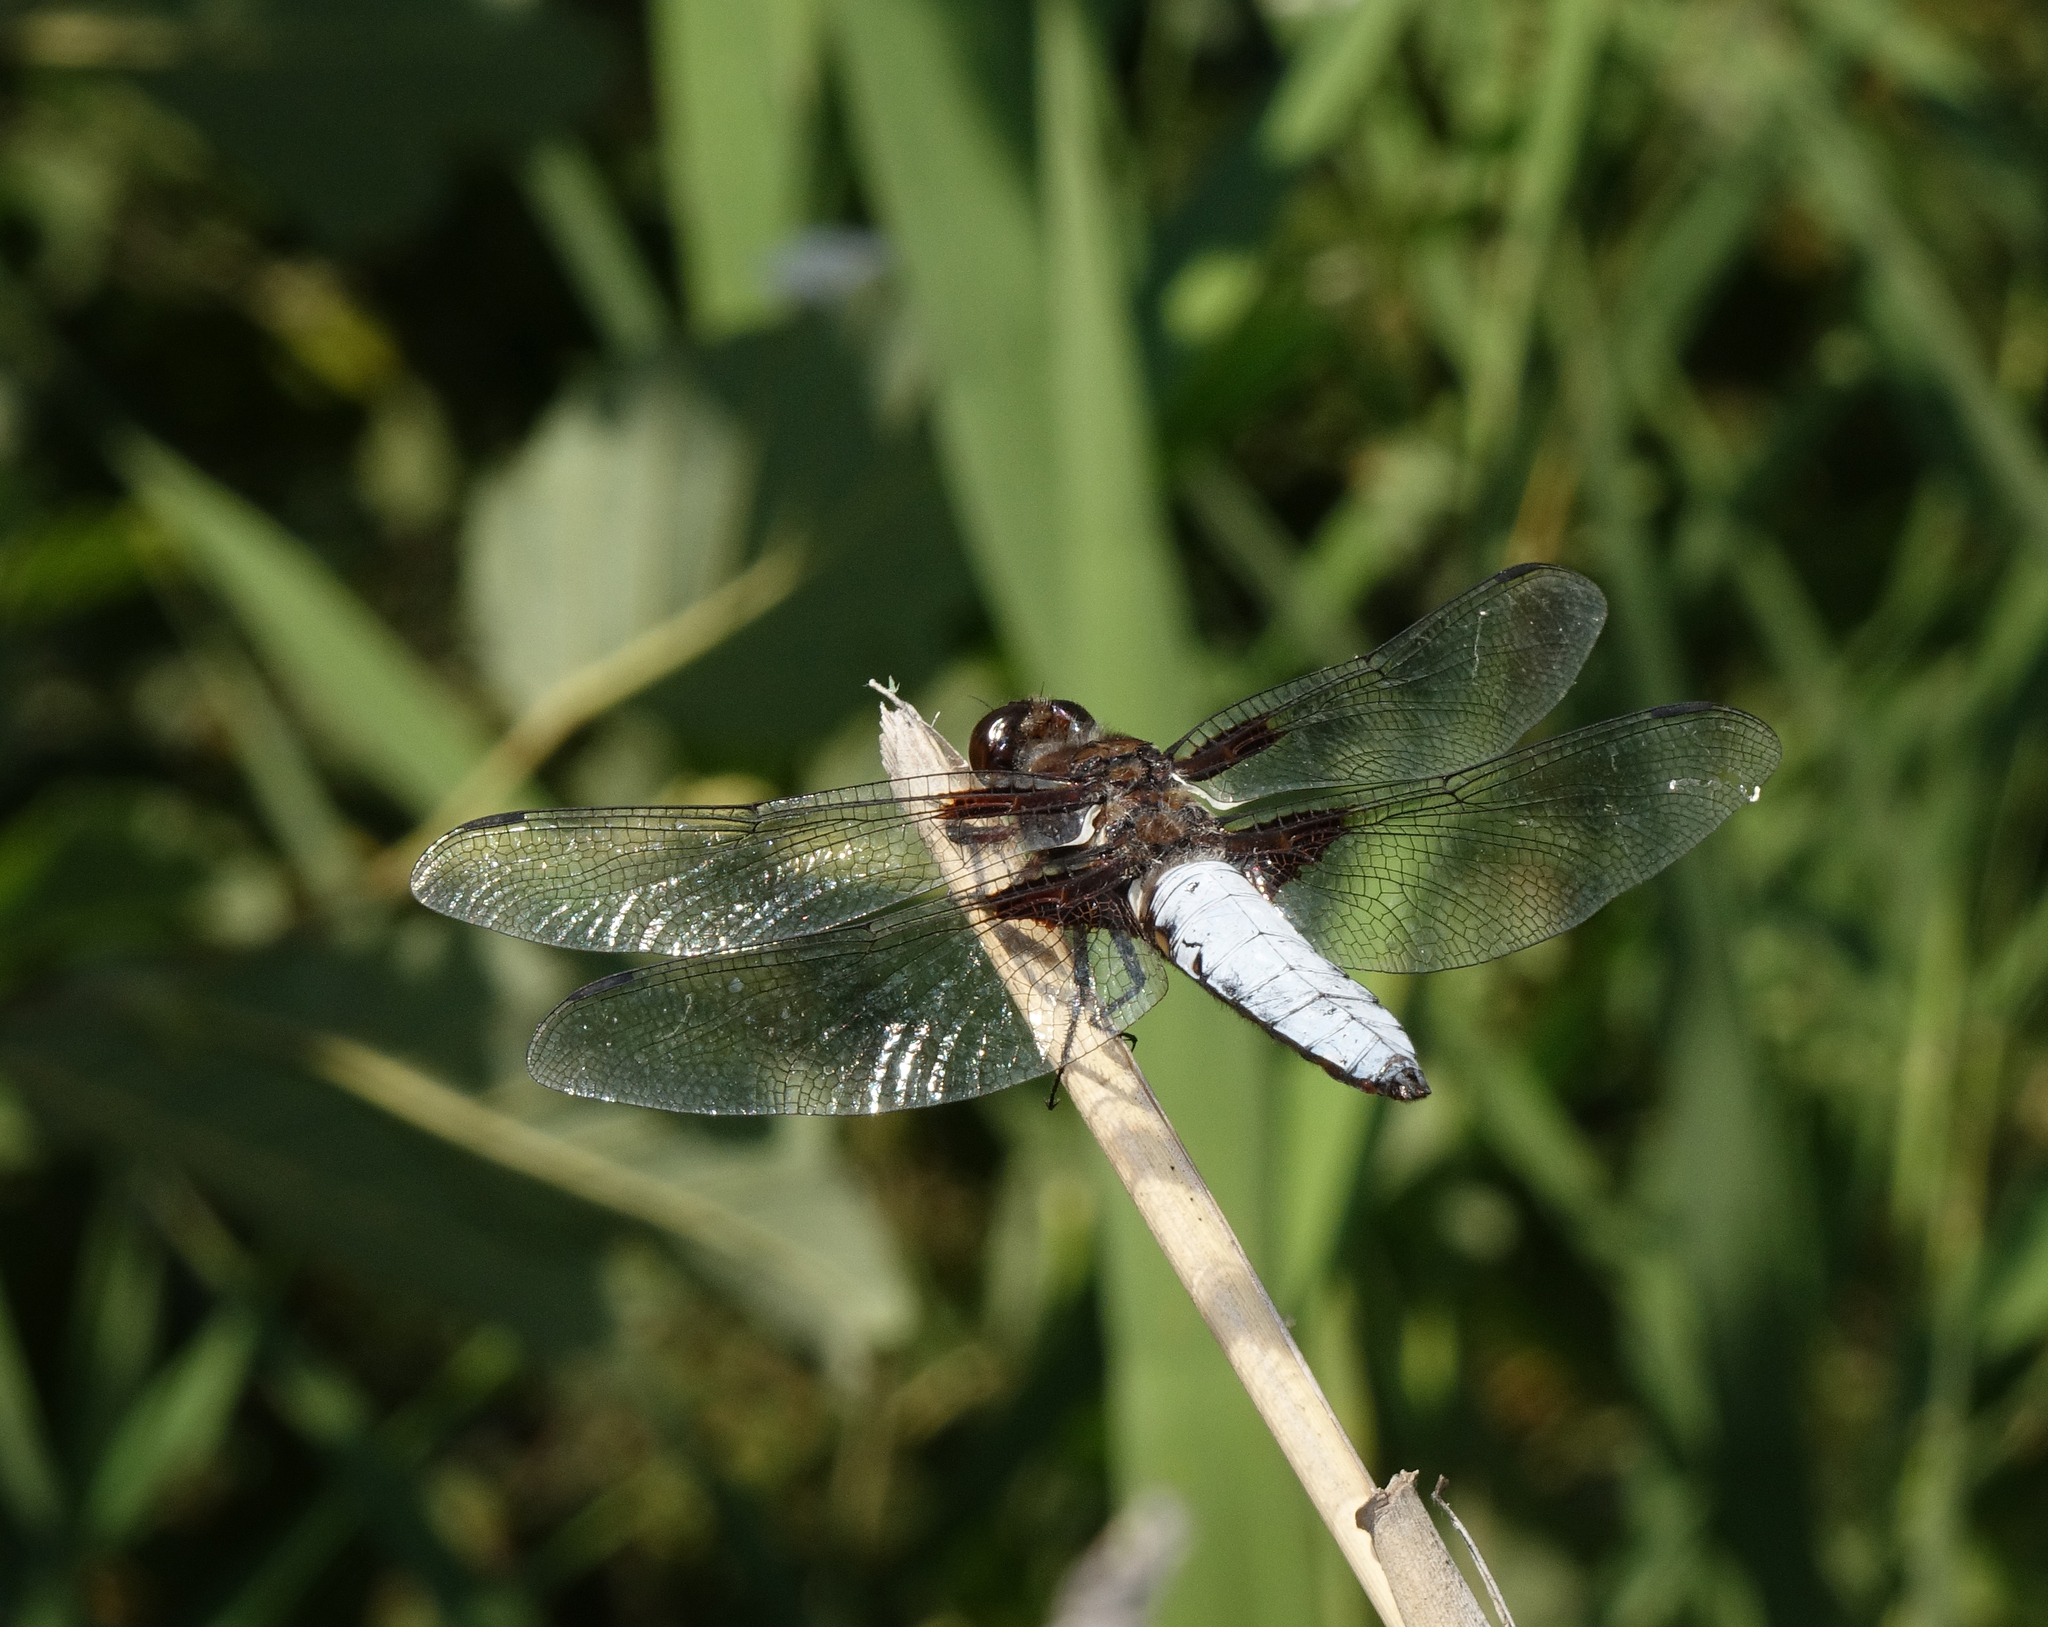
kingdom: Animalia
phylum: Arthropoda
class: Insecta
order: Odonata
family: Libellulidae
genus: Libellula
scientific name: Libellula depressa
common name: Broad-bodied chaser
